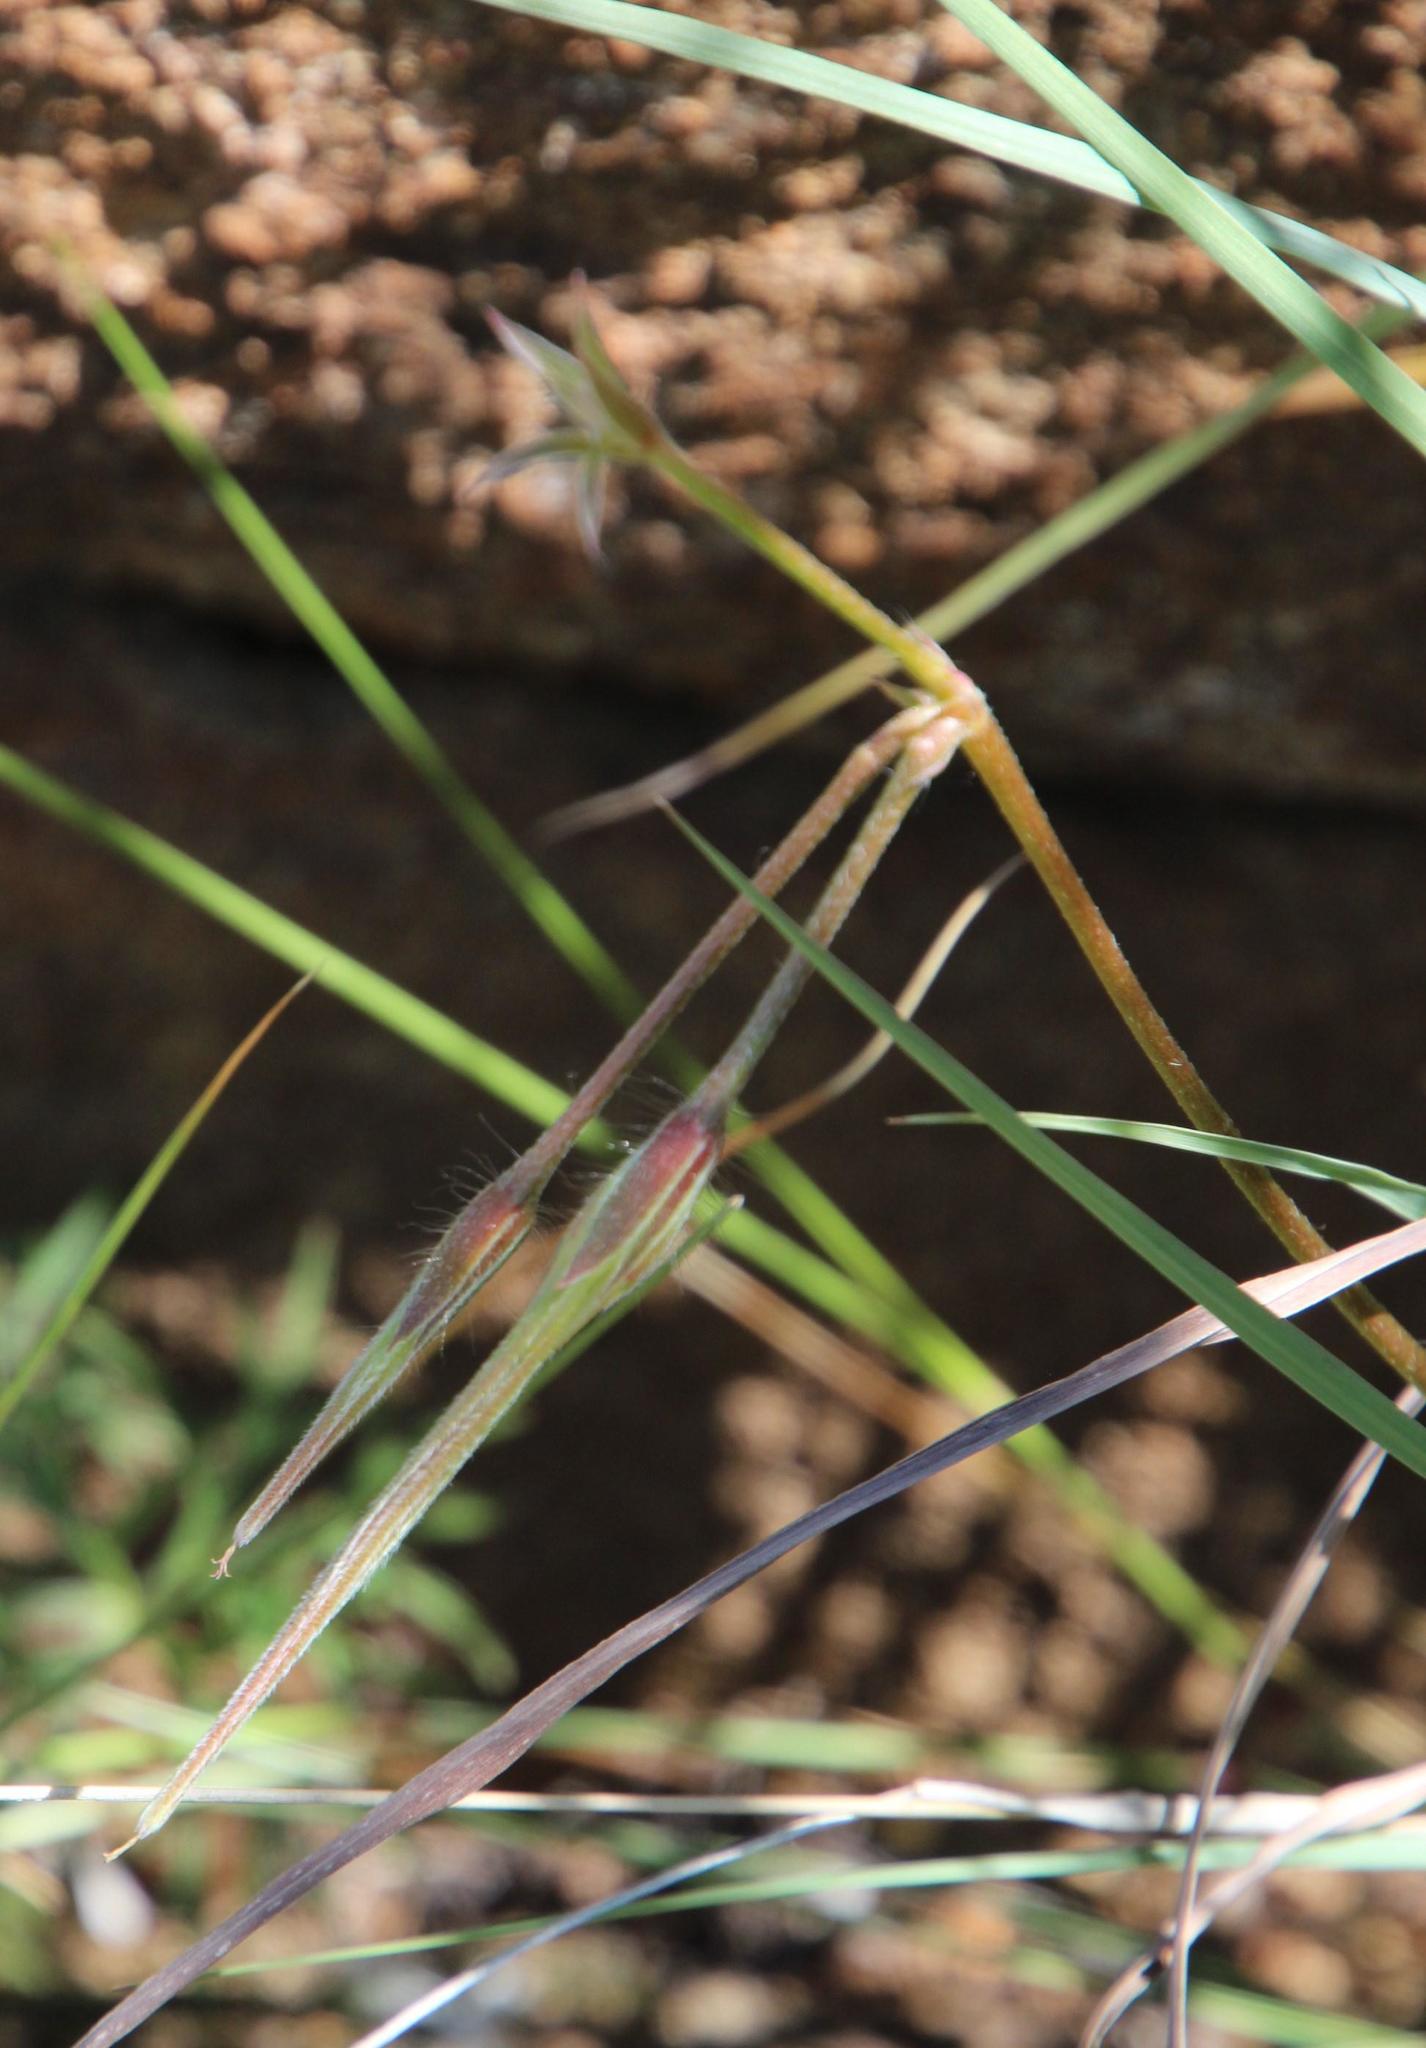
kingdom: Plantae
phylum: Tracheophyta
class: Magnoliopsida
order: Geraniales
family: Geraniaceae
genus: Pelargonium
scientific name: Pelargonium aridum
